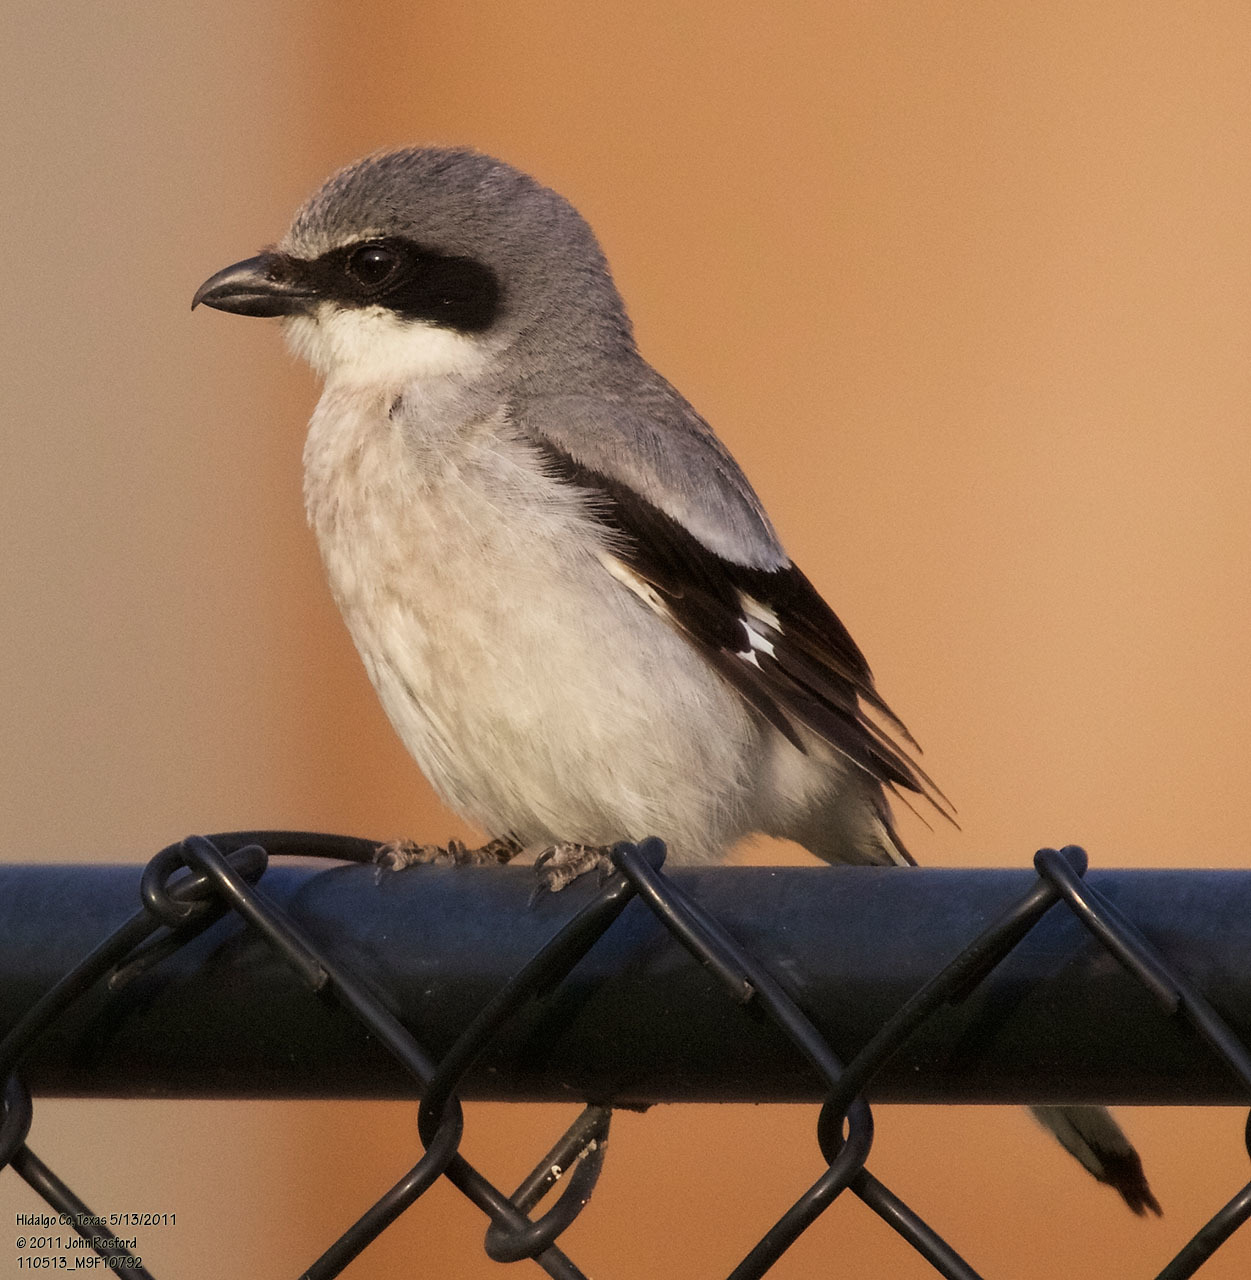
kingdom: Animalia
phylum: Chordata
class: Aves
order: Passeriformes
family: Laniidae
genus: Lanius
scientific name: Lanius ludovicianus
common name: Loggerhead shrike
